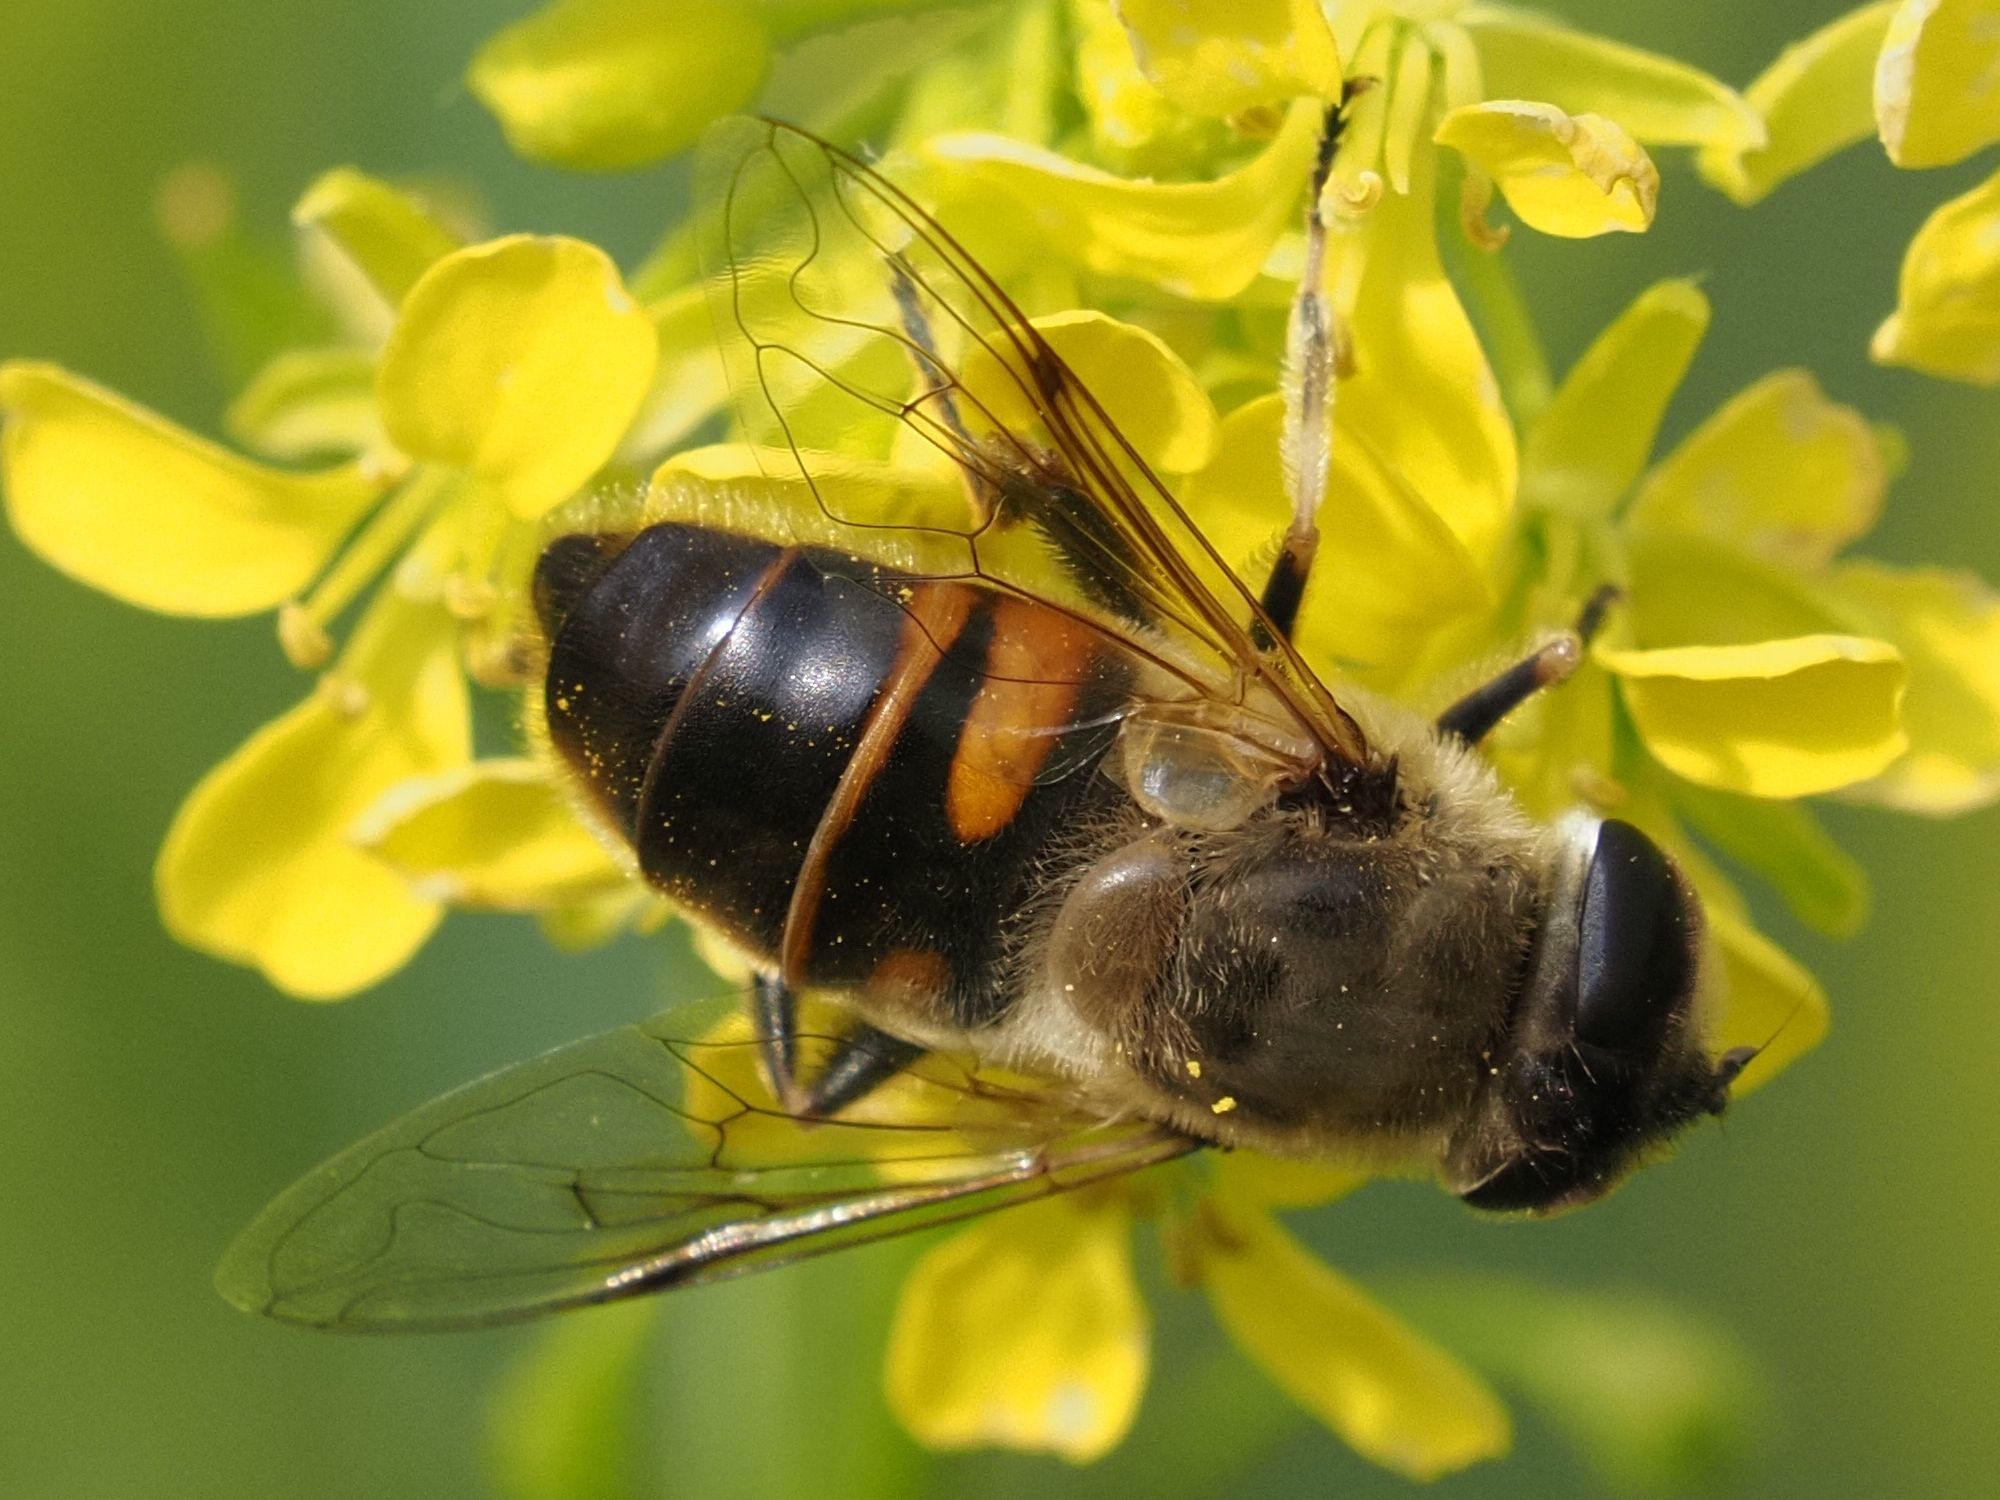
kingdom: Animalia
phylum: Arthropoda
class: Insecta
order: Diptera
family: Syrphidae
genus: Eristalis
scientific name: Eristalis tenax
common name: Drone fly
